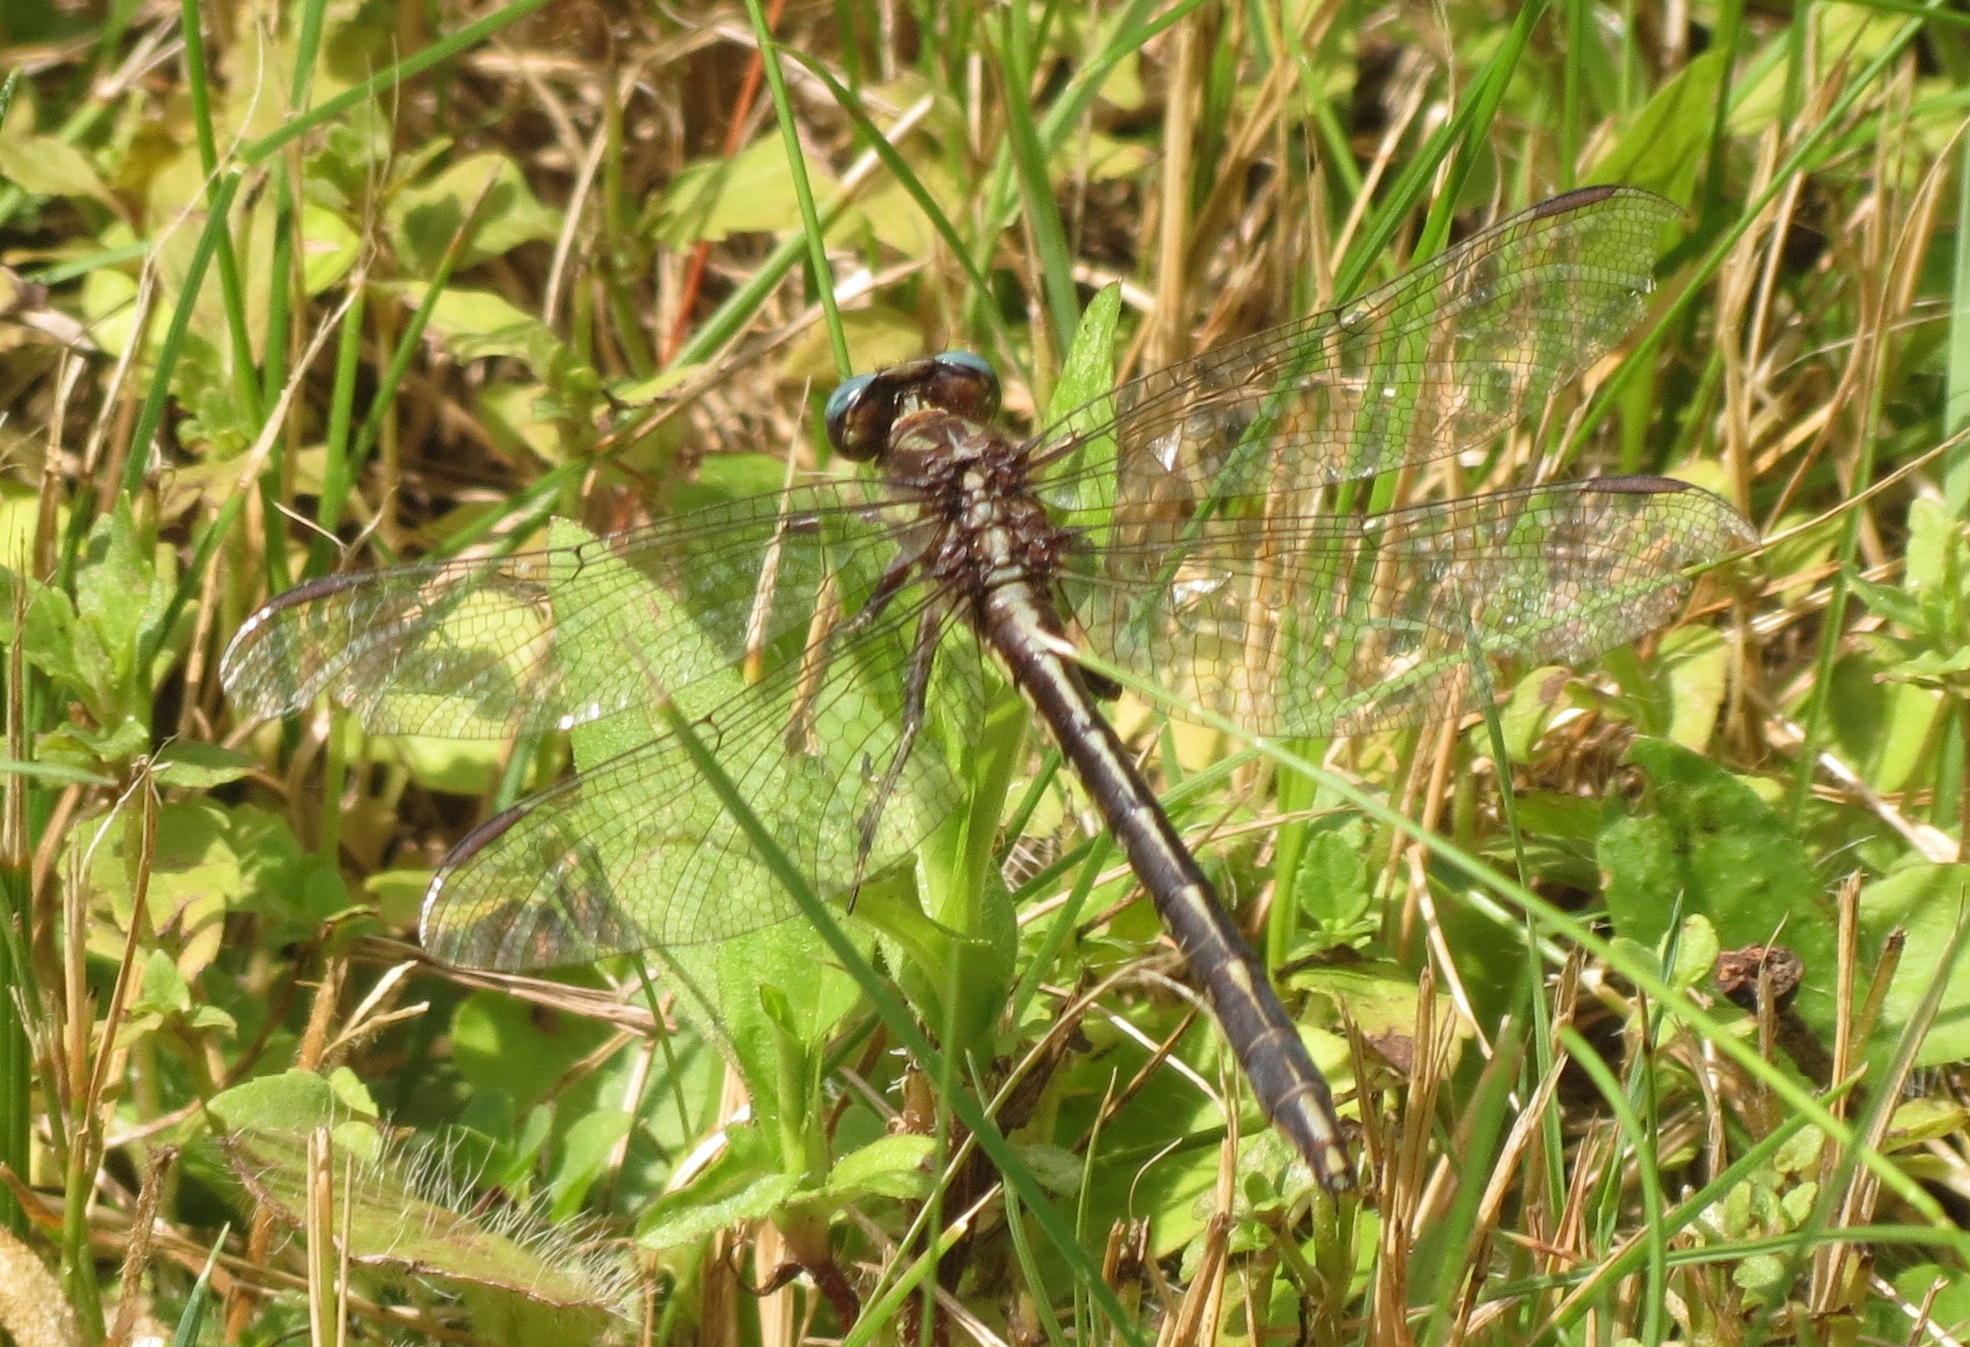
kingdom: Animalia
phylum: Arthropoda
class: Insecta
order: Odonata
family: Gomphidae
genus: Phanogomphus
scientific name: Phanogomphus exilis
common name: Lancet clubtail
